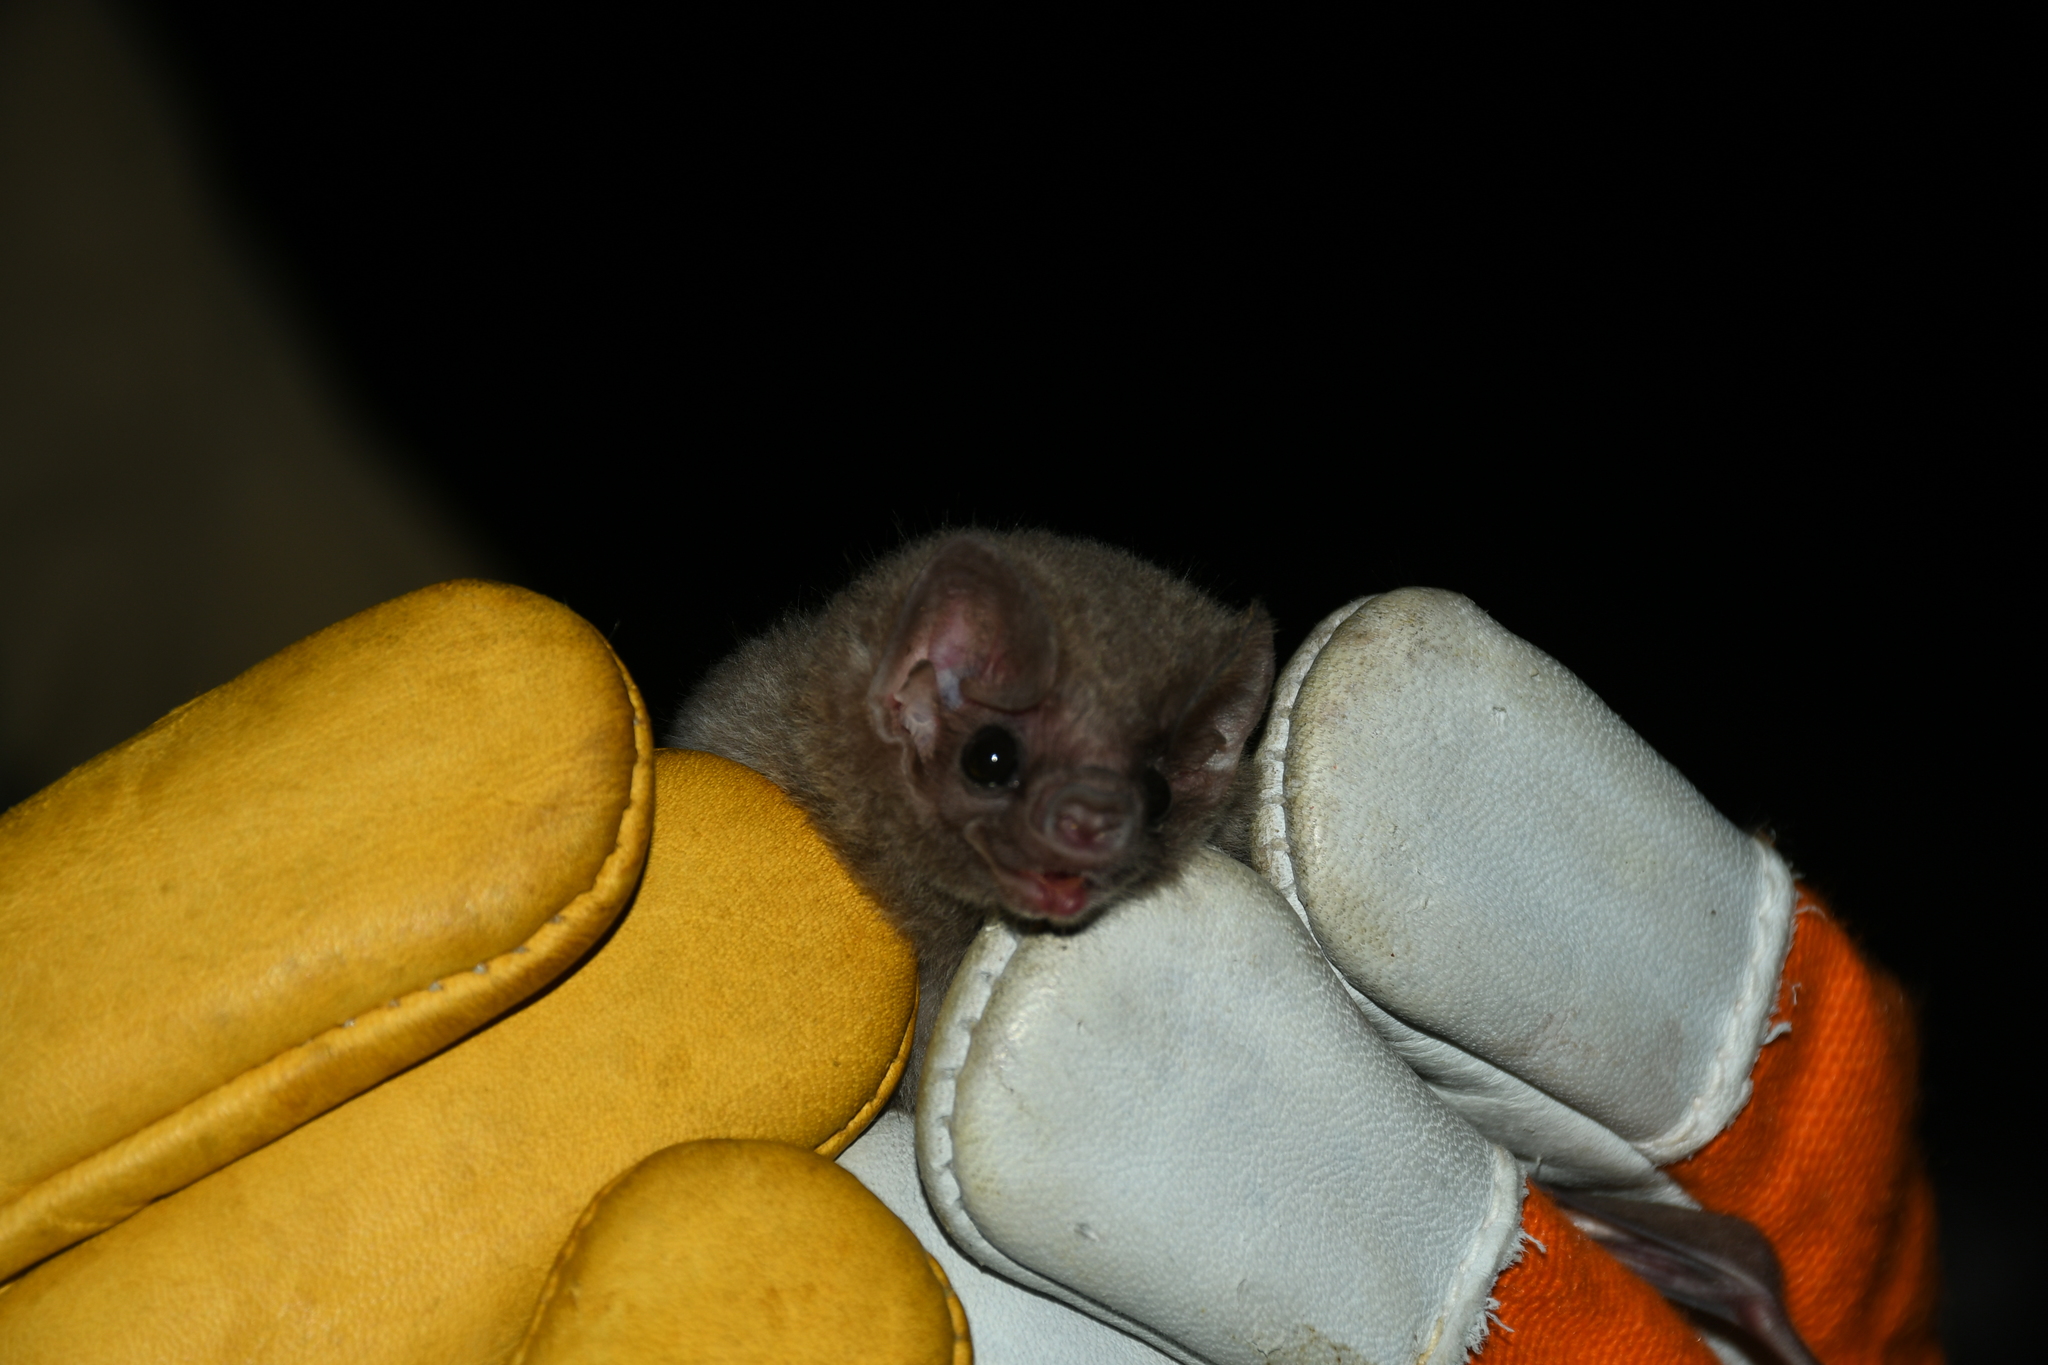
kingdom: Animalia
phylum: Chordata
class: Mammalia
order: Chiroptera
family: Phyllostomidae
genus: Diphylla
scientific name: Diphylla ecaudata
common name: Hairy-legged vampire bat
